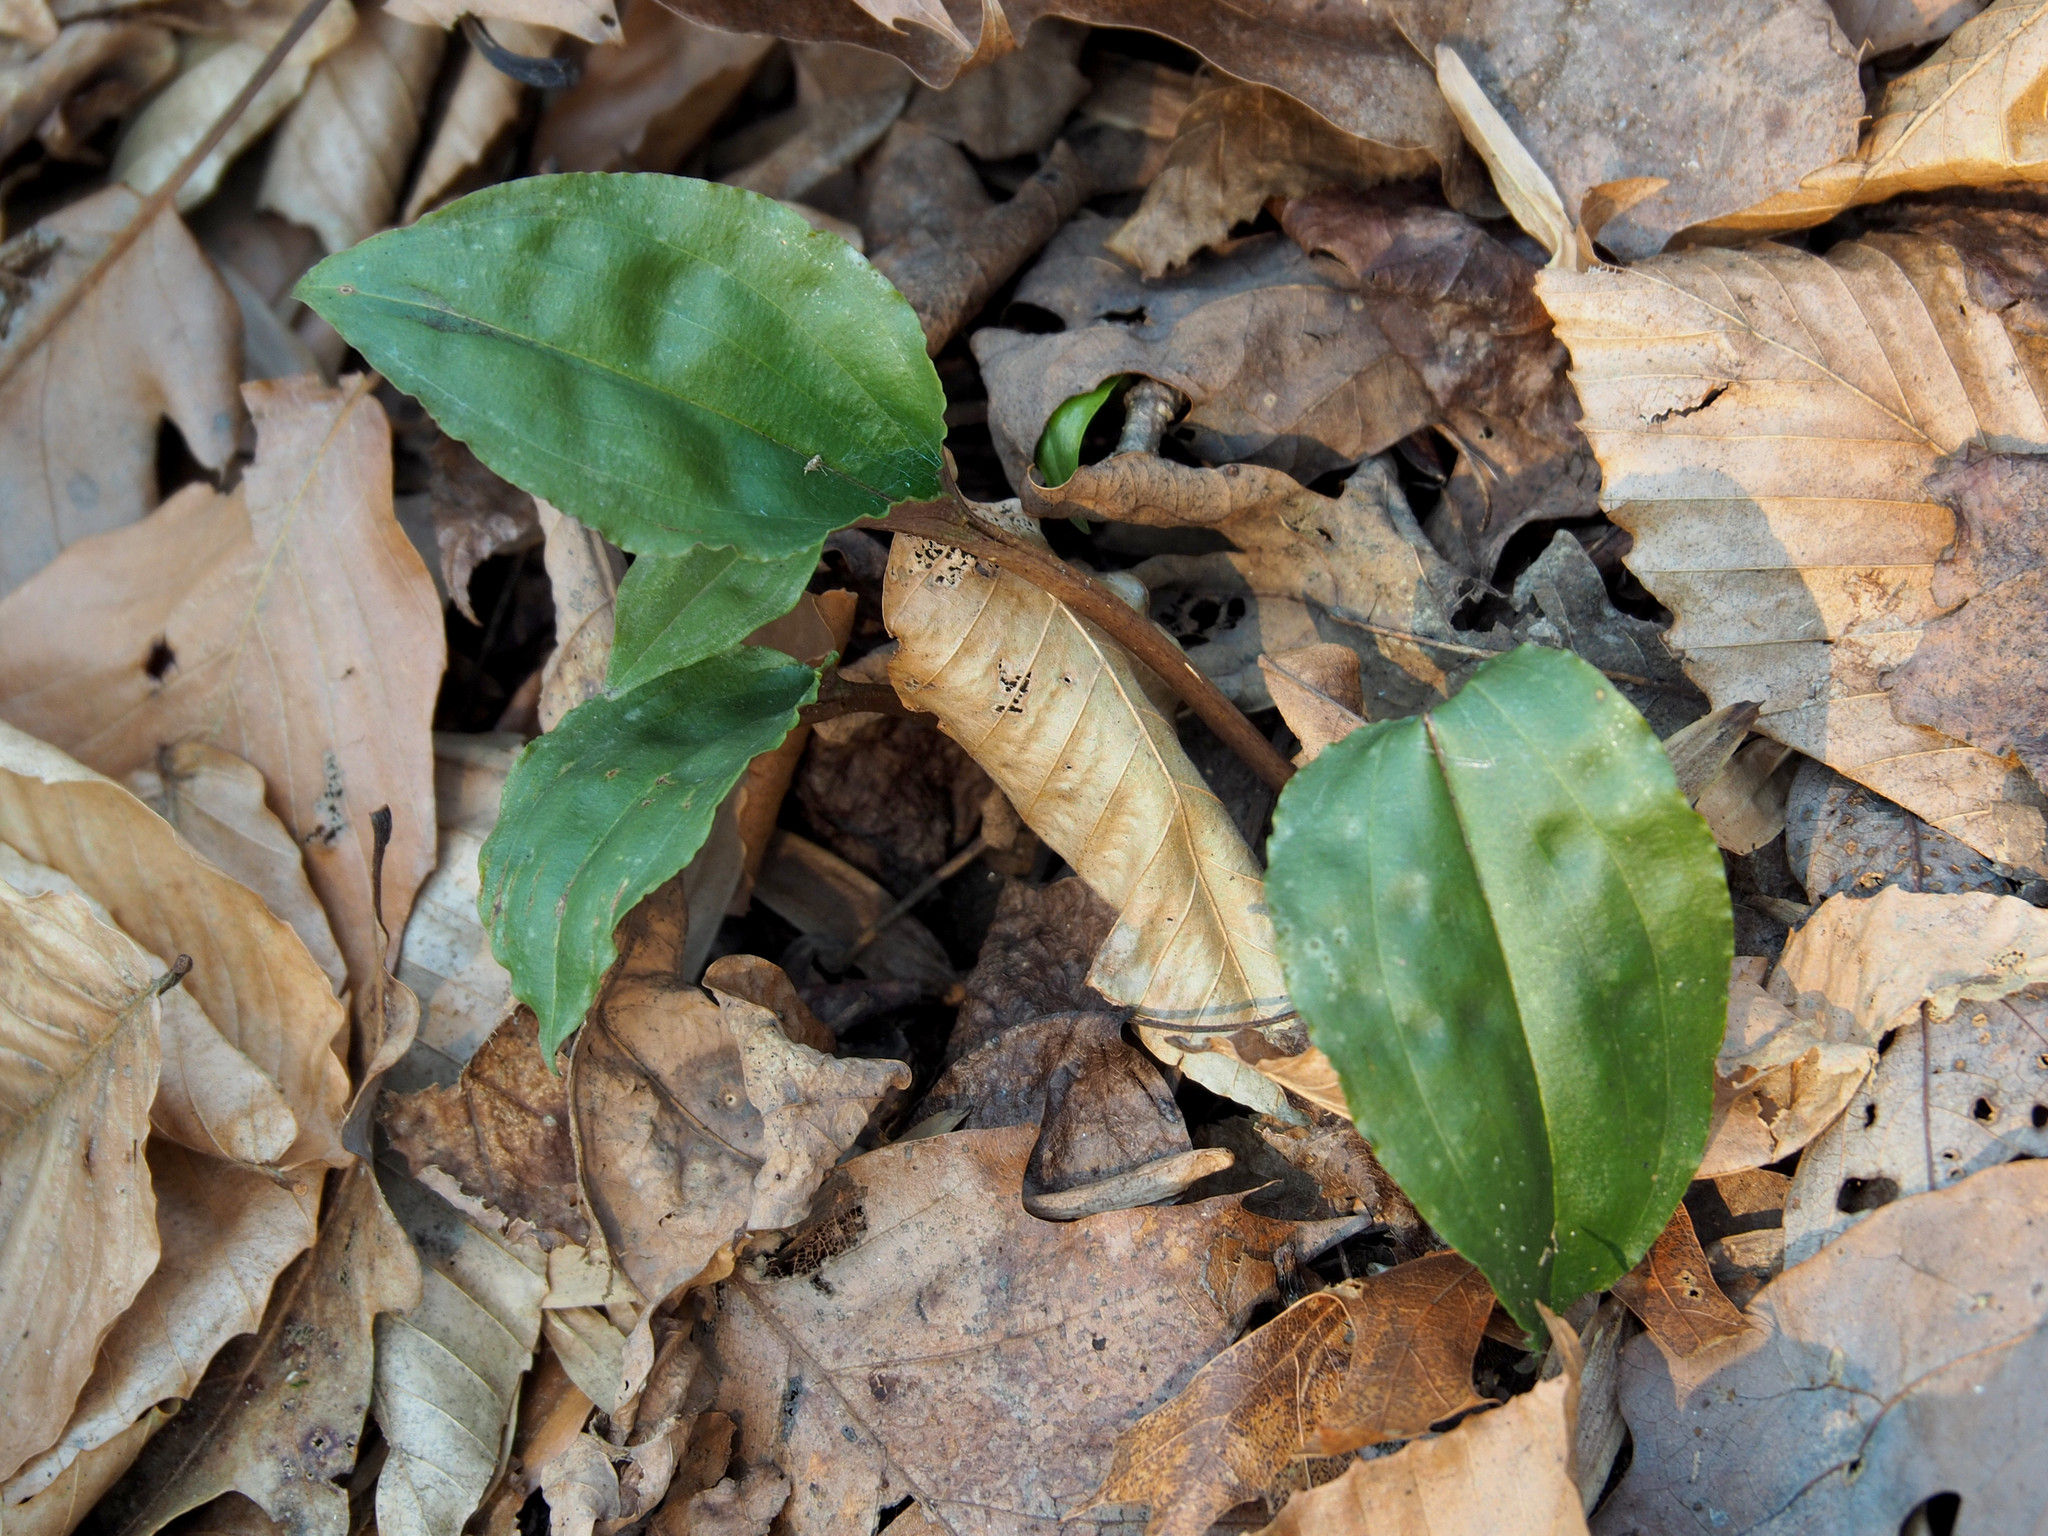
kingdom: Plantae
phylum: Tracheophyta
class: Liliopsida
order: Asparagales
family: Orchidaceae
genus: Tipularia
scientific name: Tipularia discolor
